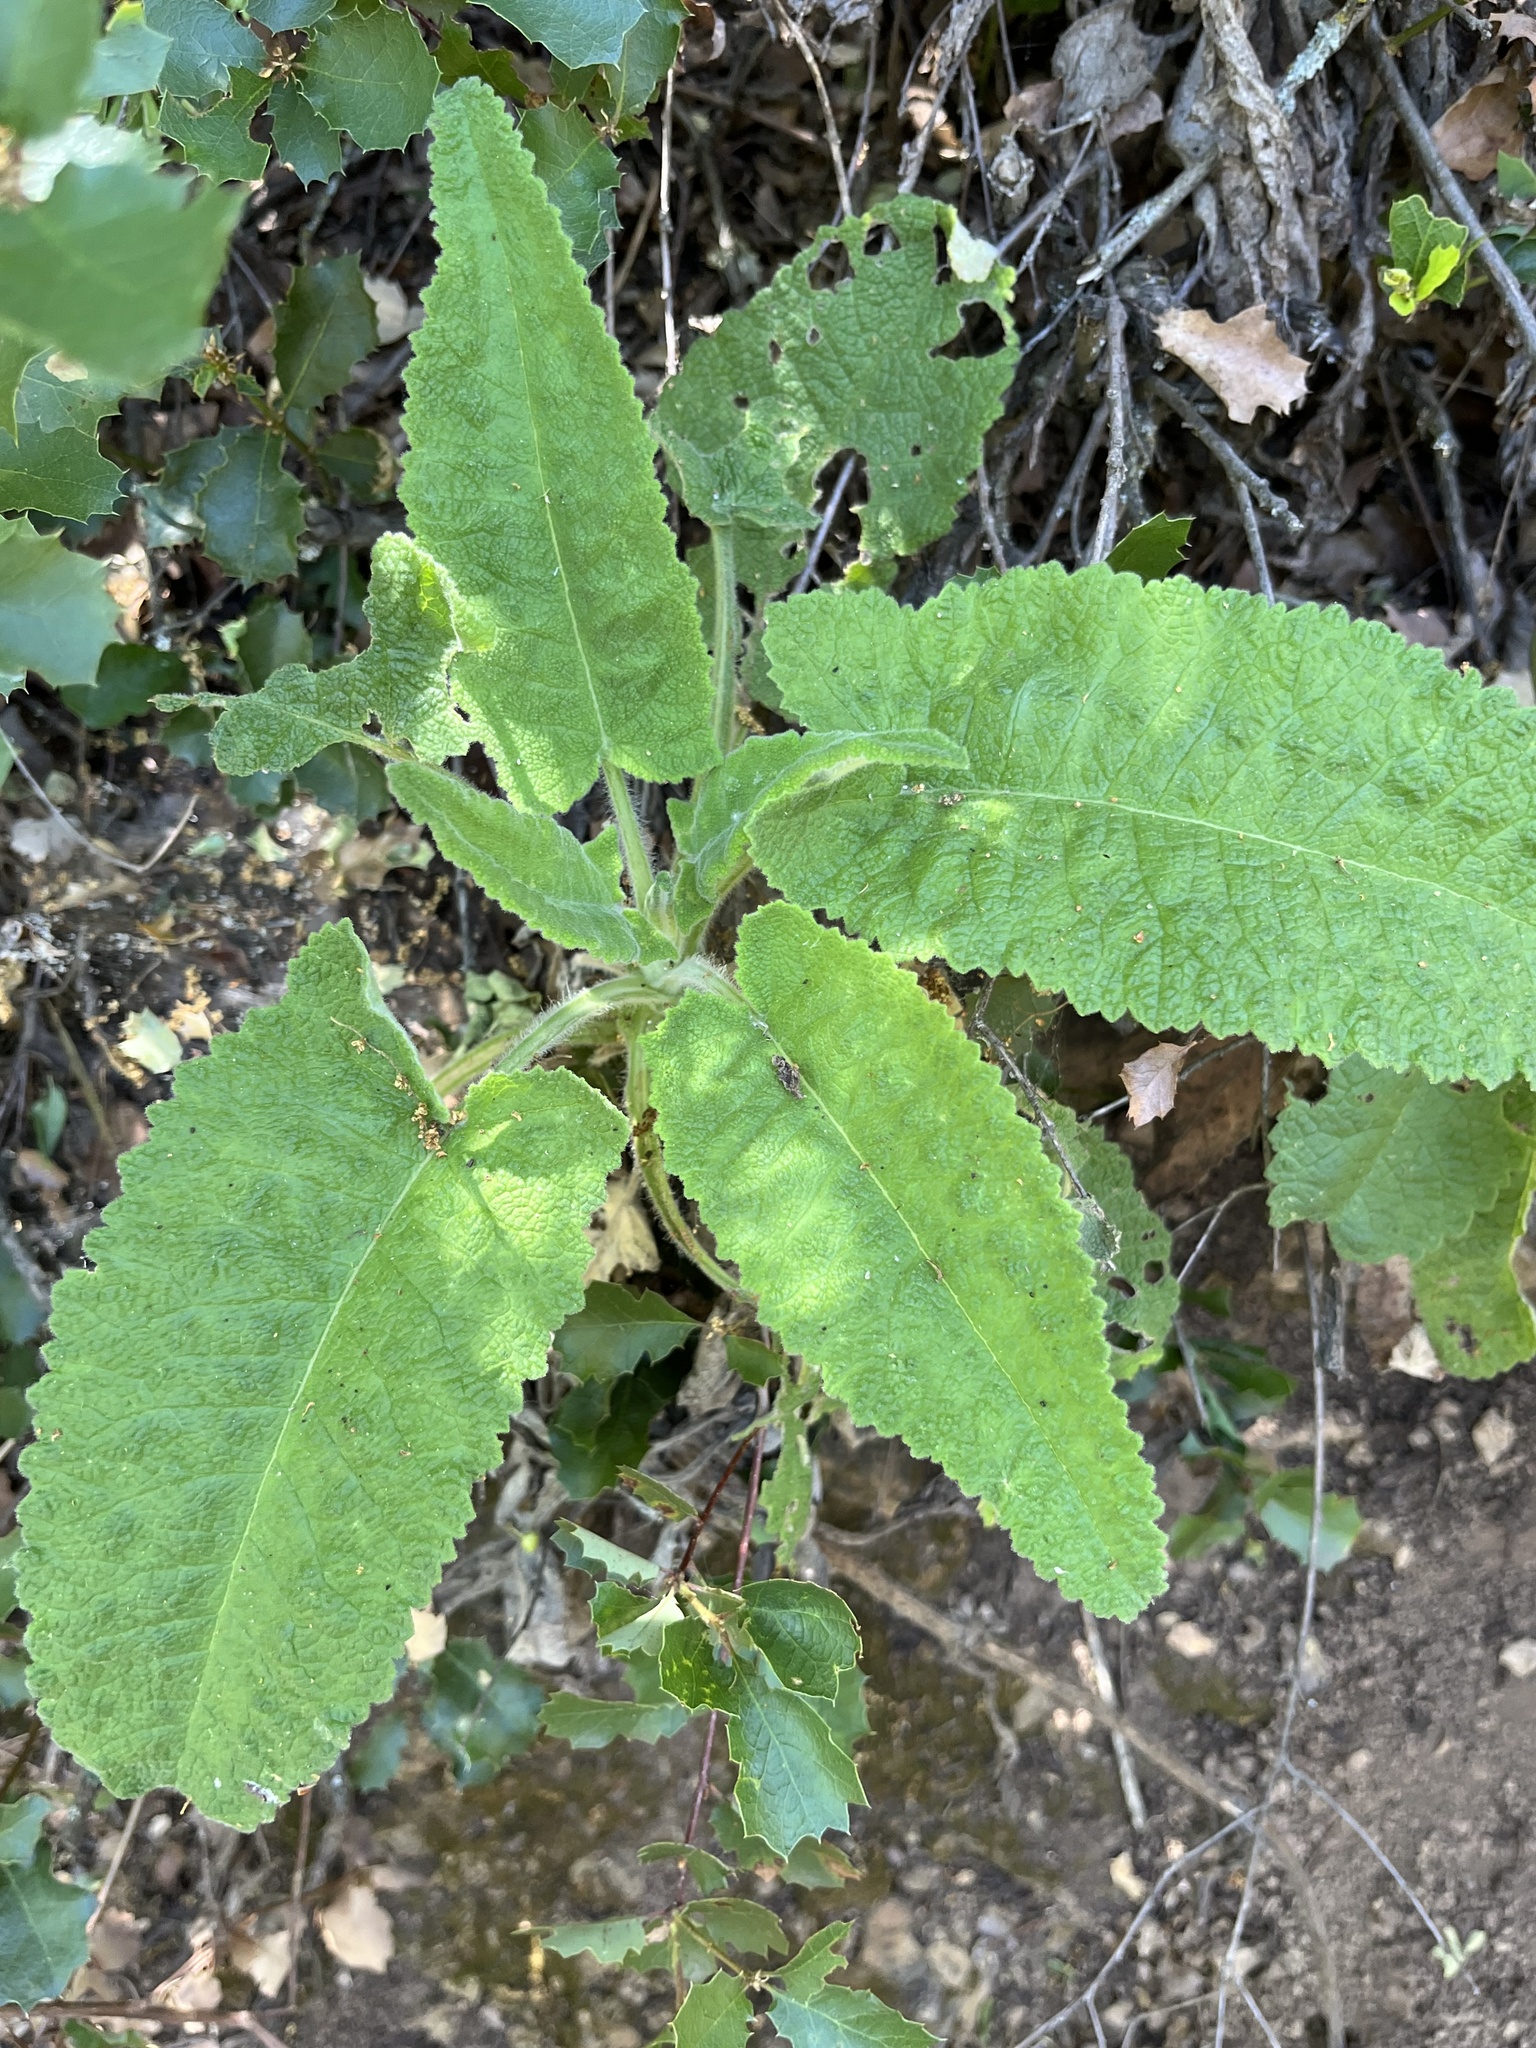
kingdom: Plantae
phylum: Tracheophyta
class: Magnoliopsida
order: Lamiales
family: Lamiaceae
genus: Salvia
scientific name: Salvia spathacea
